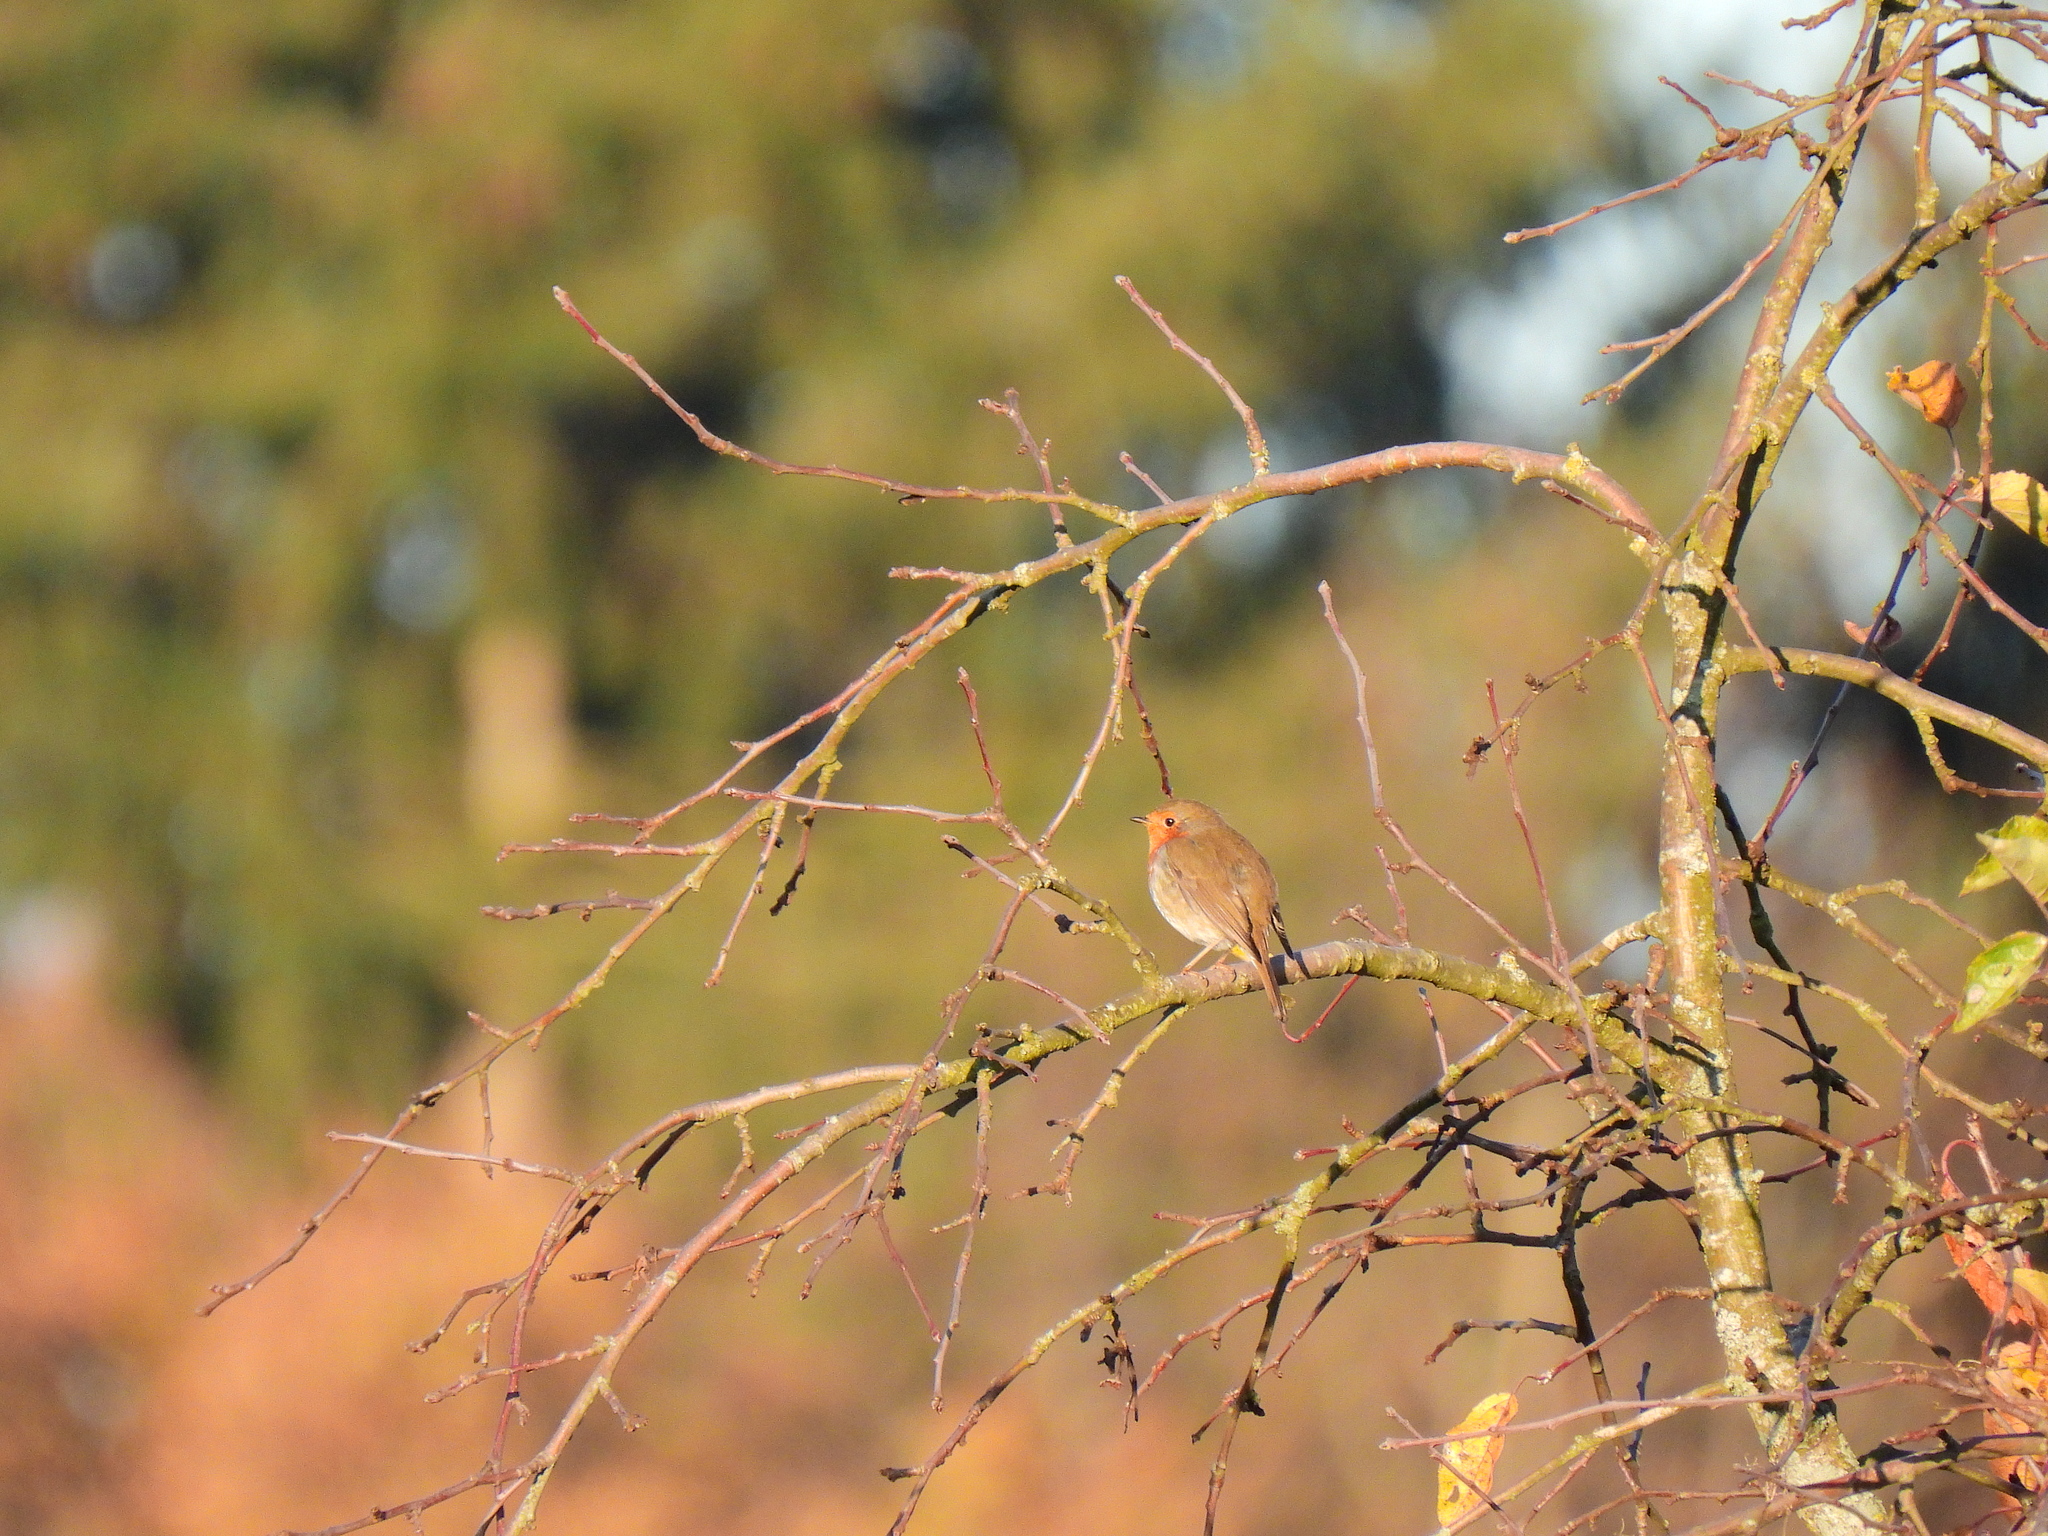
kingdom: Animalia
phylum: Chordata
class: Aves
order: Passeriformes
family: Muscicapidae
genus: Erithacus
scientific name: Erithacus rubecula
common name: European robin
